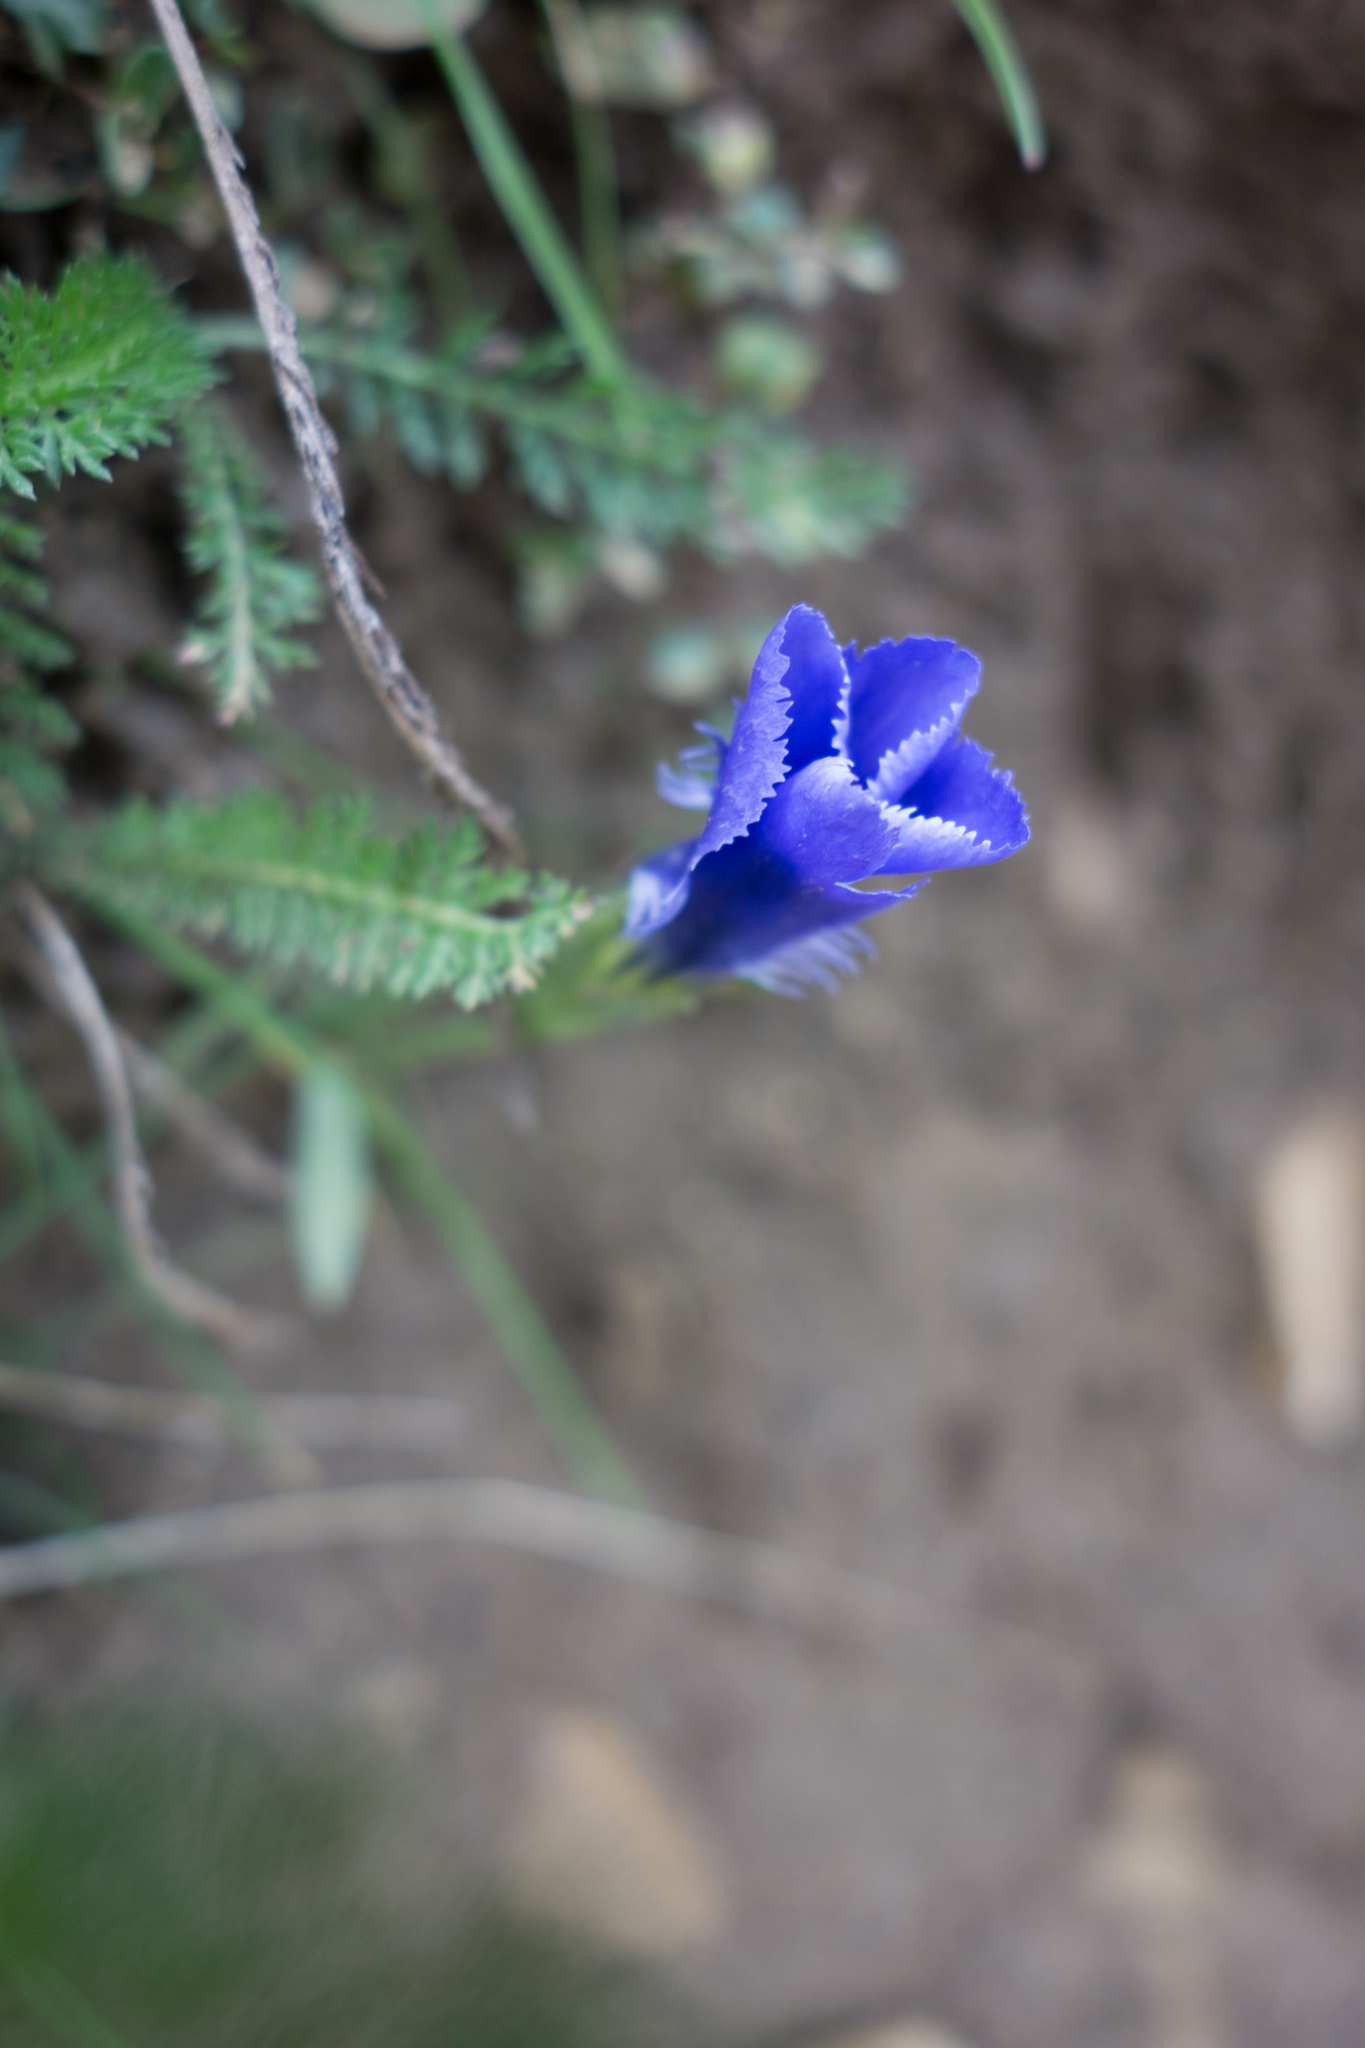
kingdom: Plantae
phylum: Tracheophyta
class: Magnoliopsida
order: Gentianales
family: Gentianaceae
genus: Gentianopsis
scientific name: Gentianopsis ciliata
